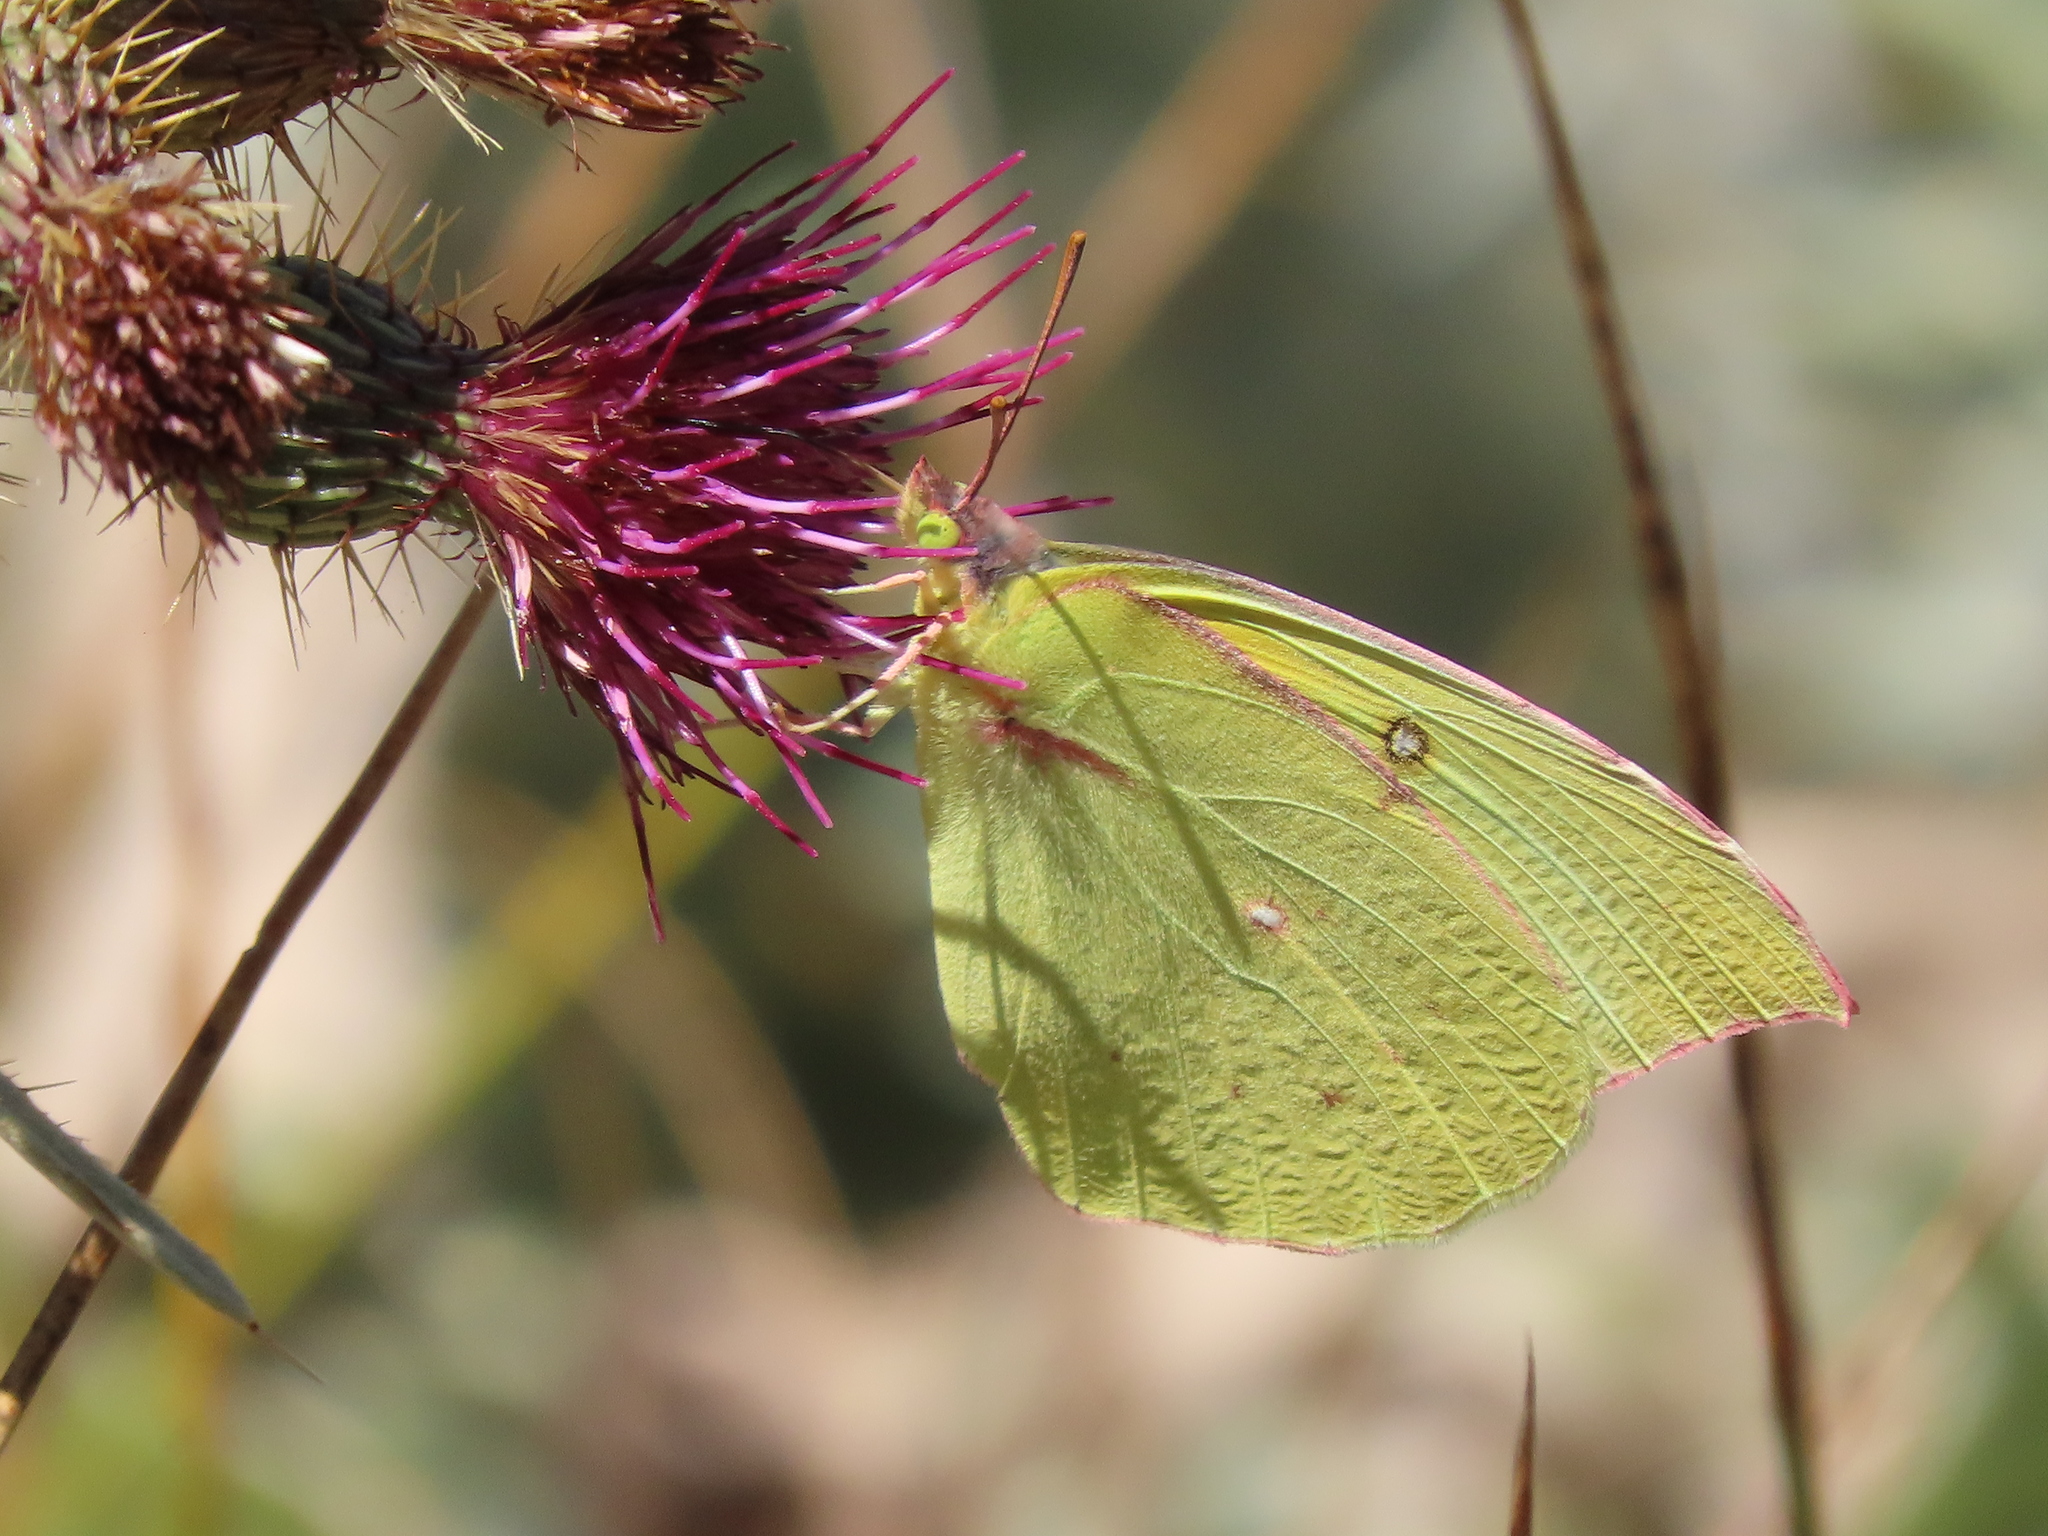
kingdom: Animalia
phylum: Arthropoda
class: Insecta
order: Lepidoptera
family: Pieridae
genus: Zerene
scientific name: Zerene eurydice
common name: California dogface
